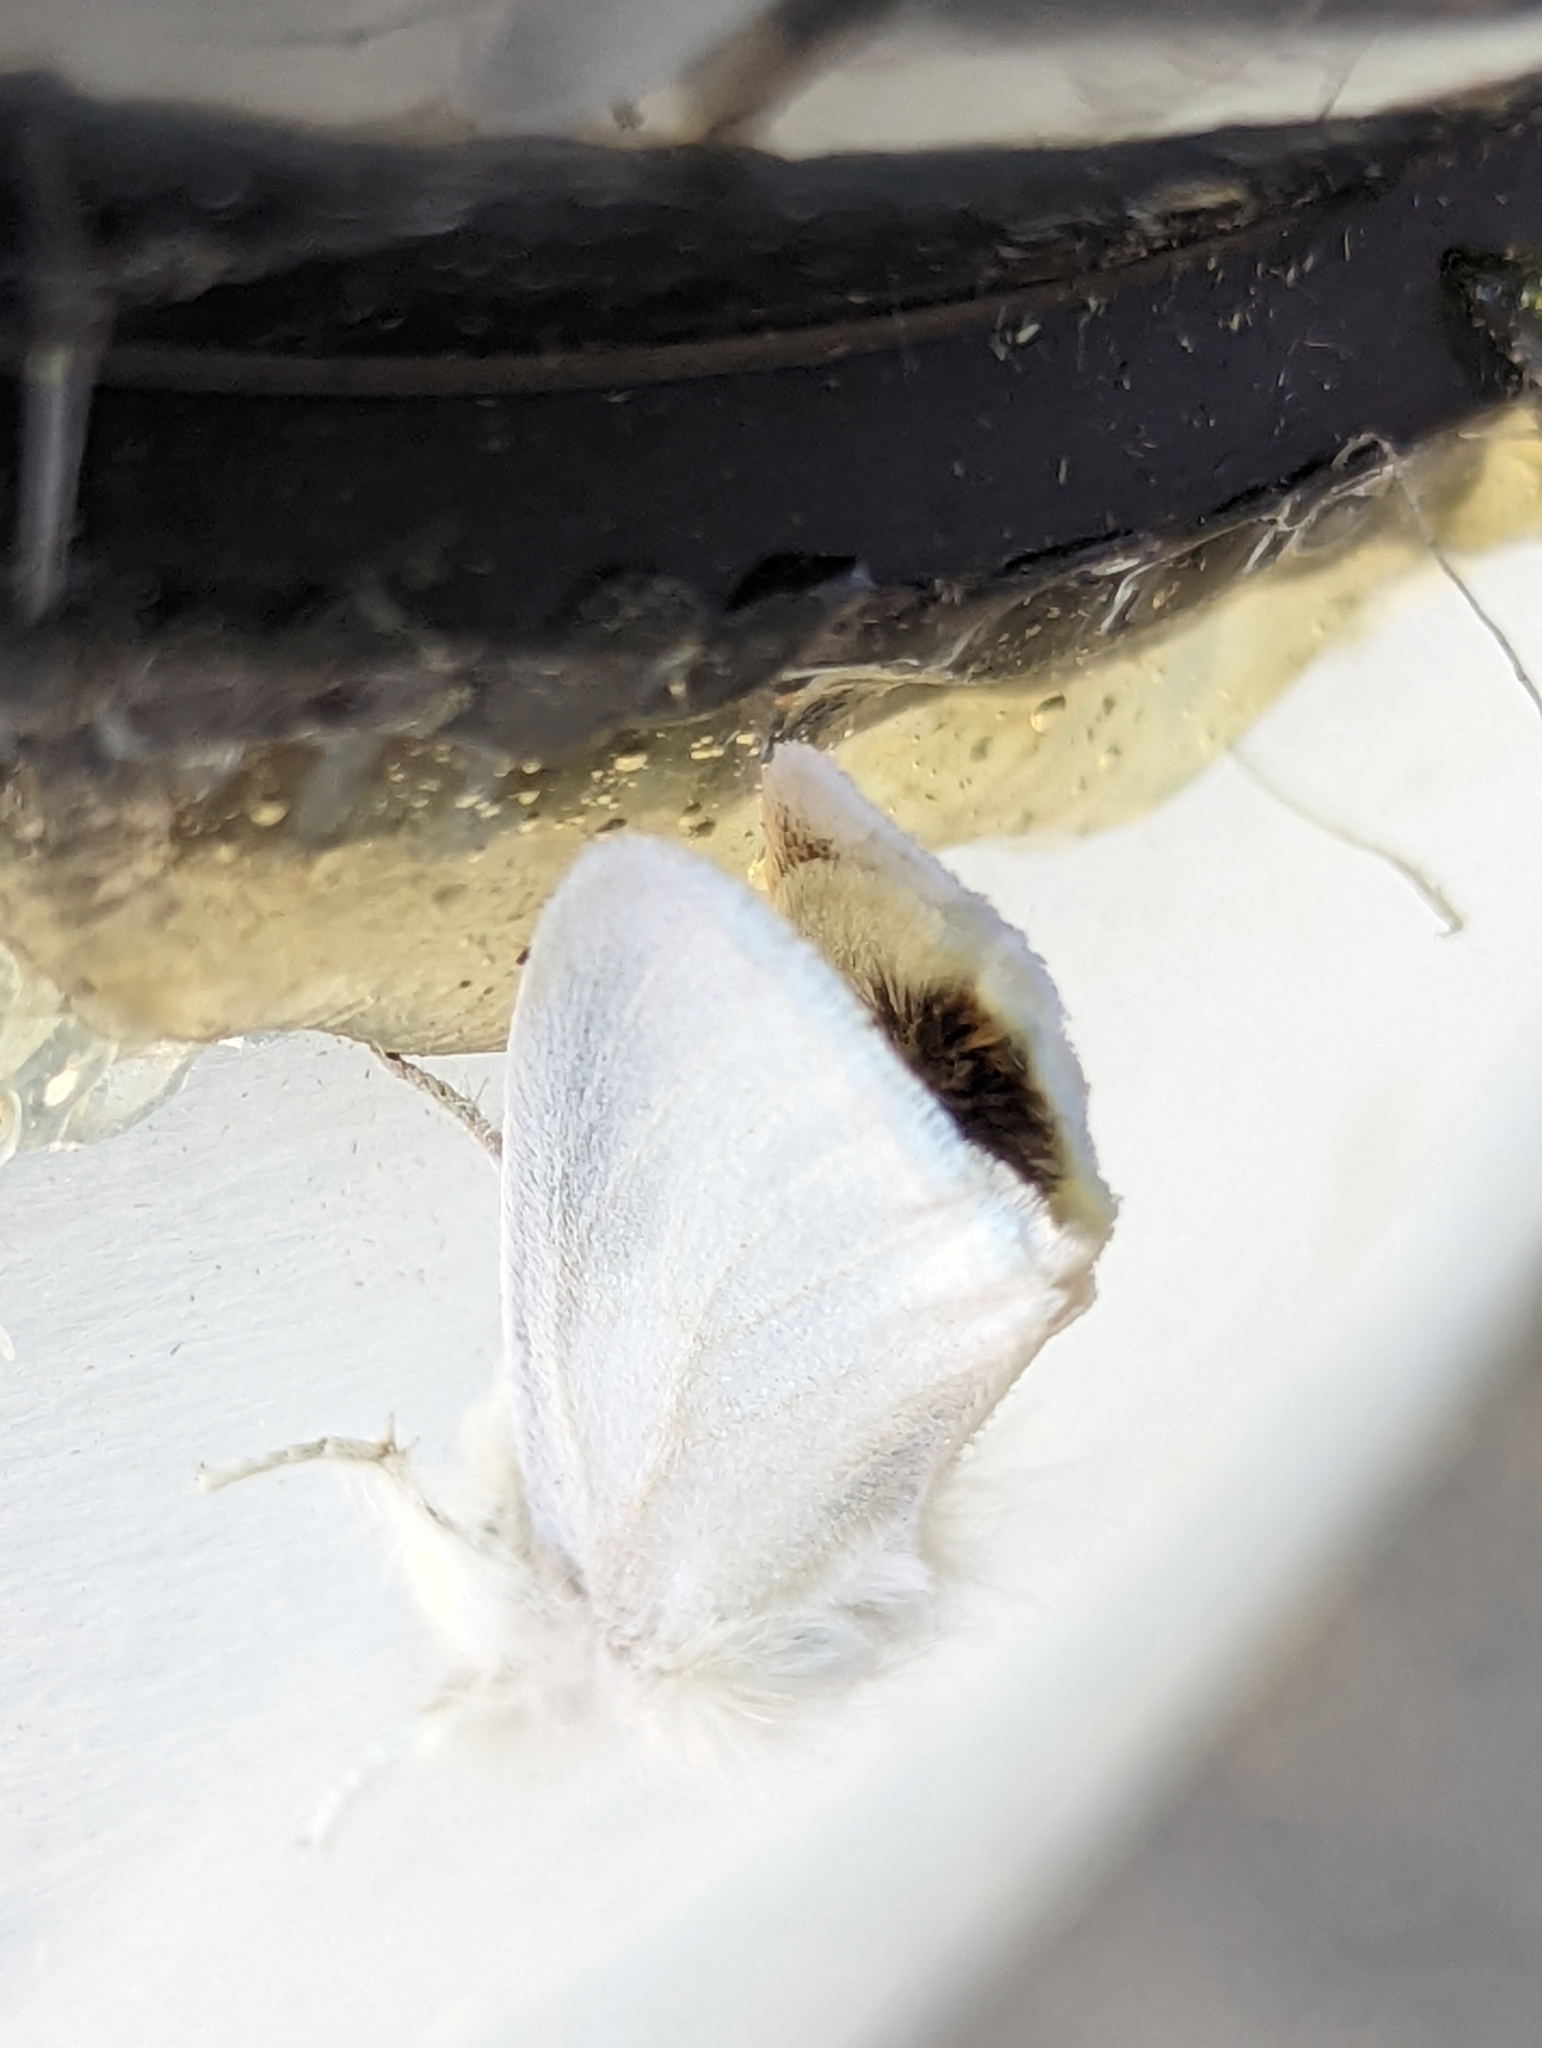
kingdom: Animalia
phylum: Arthropoda
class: Insecta
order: Lepidoptera
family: Erebidae
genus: Euproctis
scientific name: Euproctis chrysorrhoea
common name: Brown-tail
